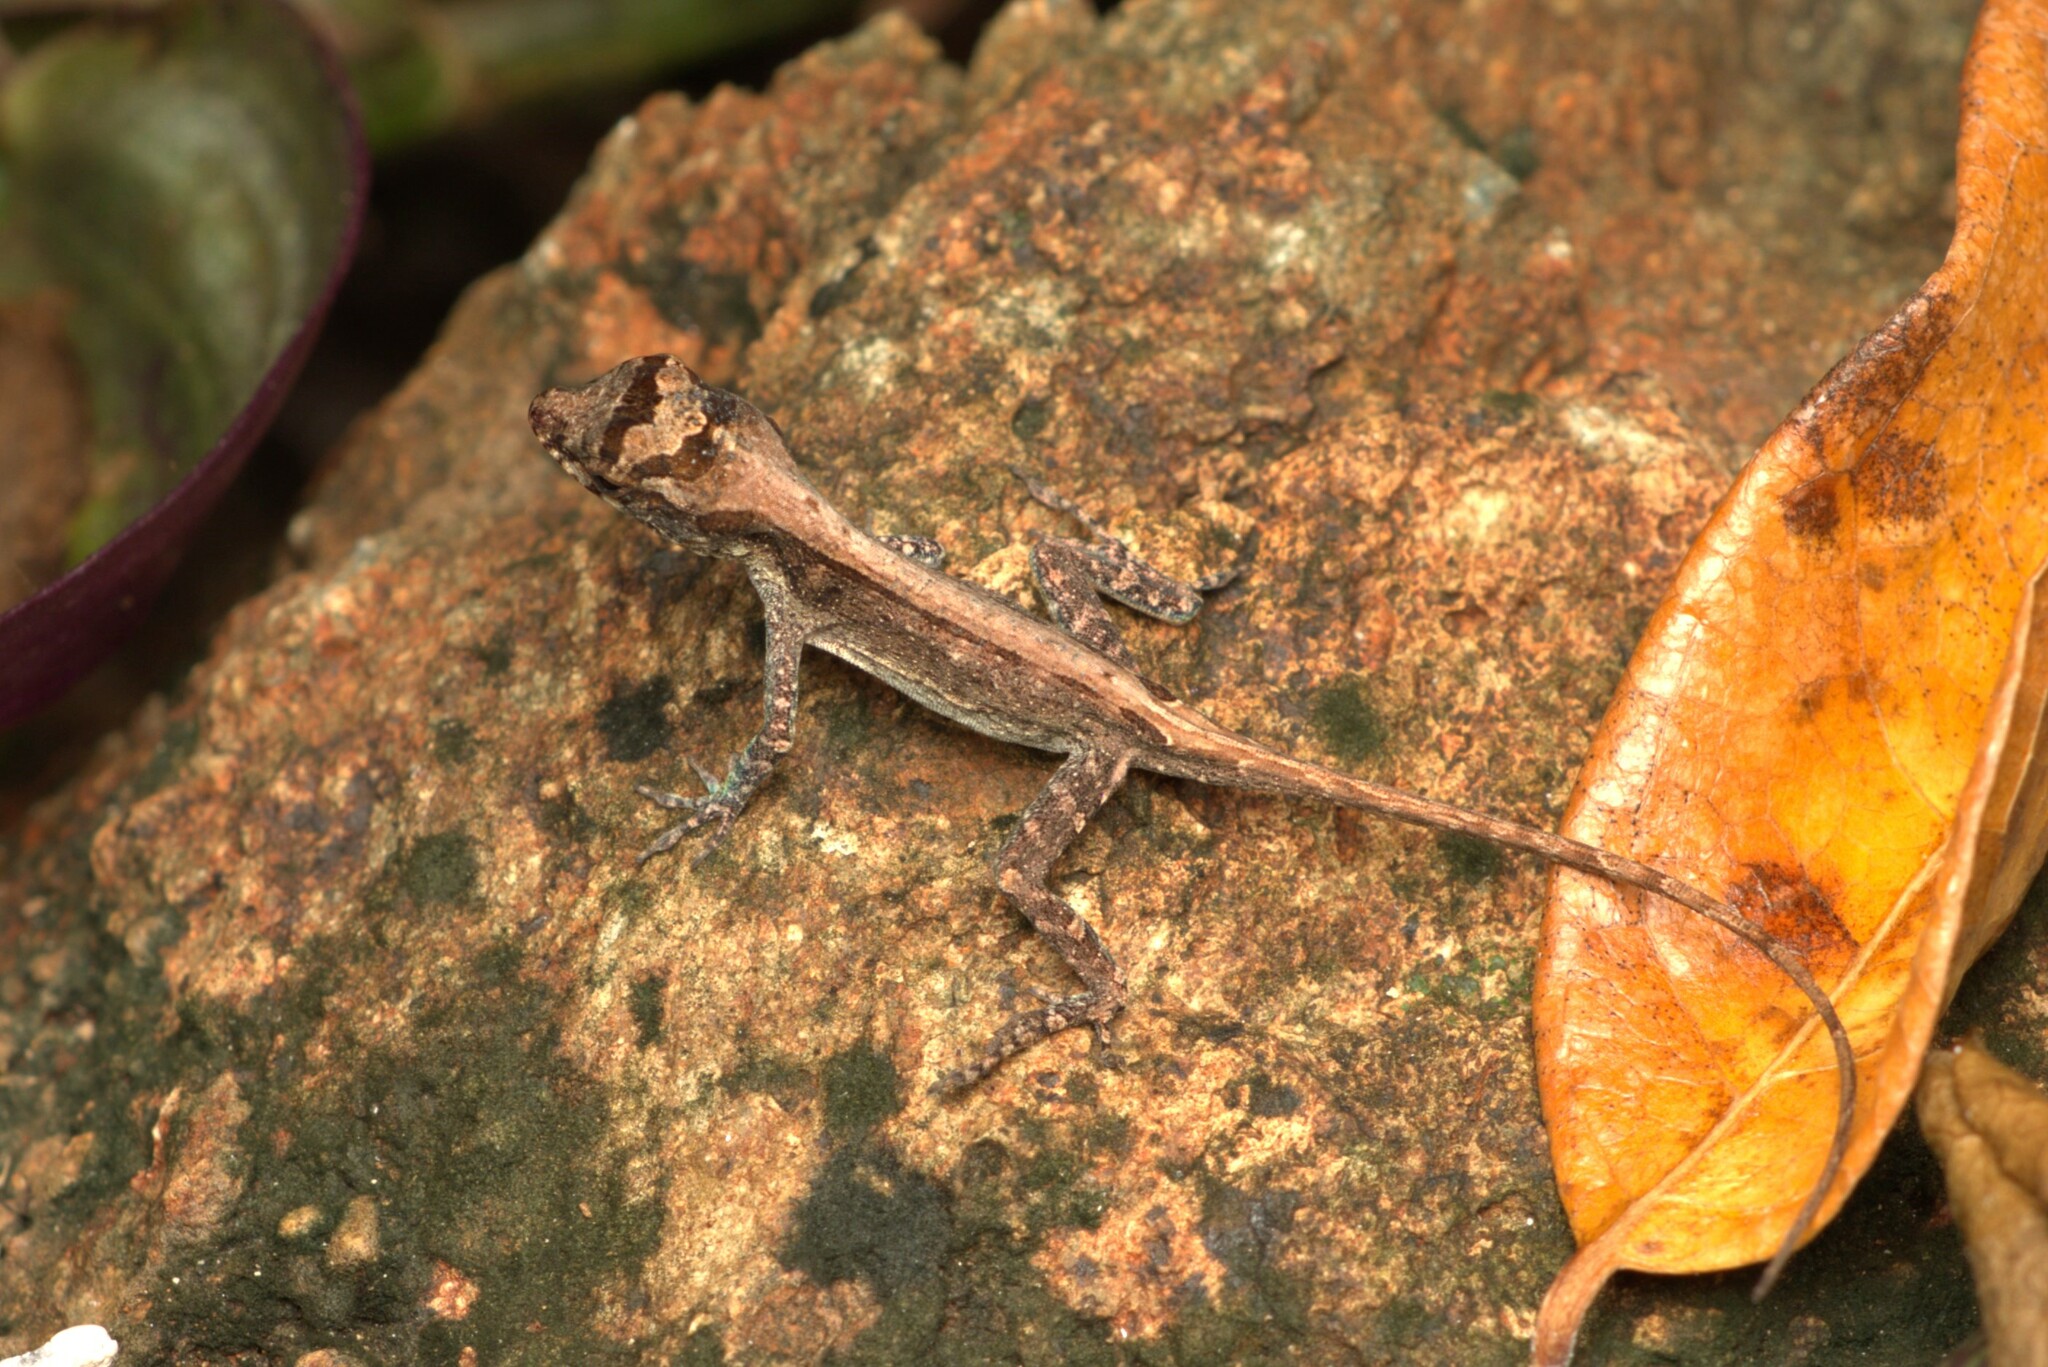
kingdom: Animalia
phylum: Chordata
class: Squamata
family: Dactyloidae
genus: Anolis
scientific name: Anolis sagrei
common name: Brown anole
